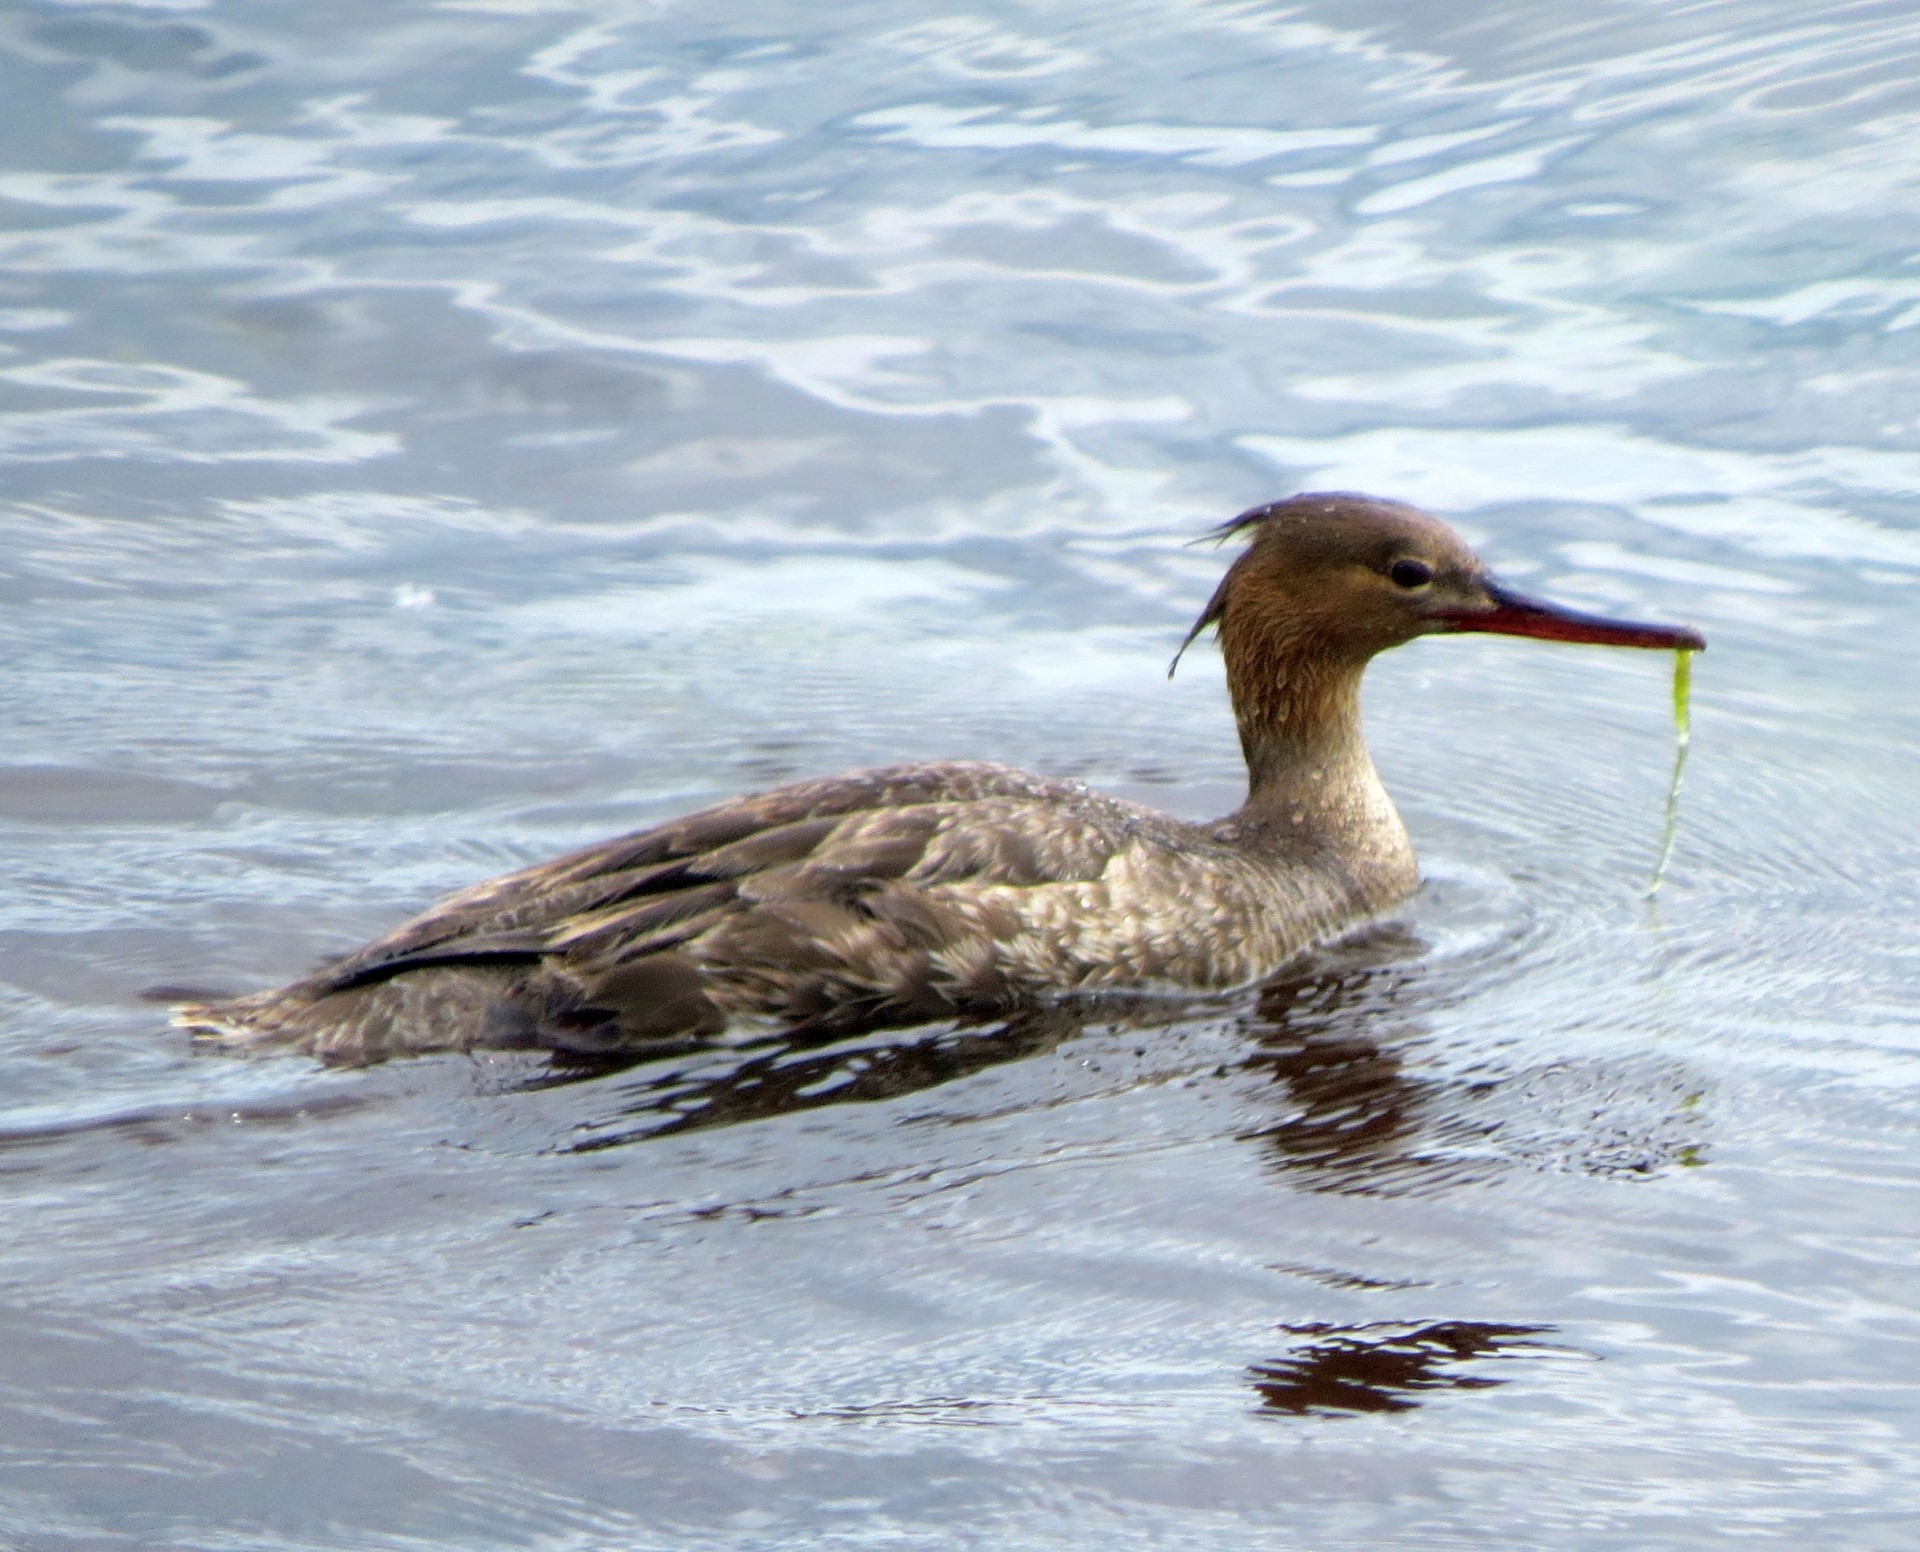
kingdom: Animalia
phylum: Chordata
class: Aves
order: Anseriformes
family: Anatidae
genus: Mergus
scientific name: Mergus serrator
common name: Red-breasted merganser
